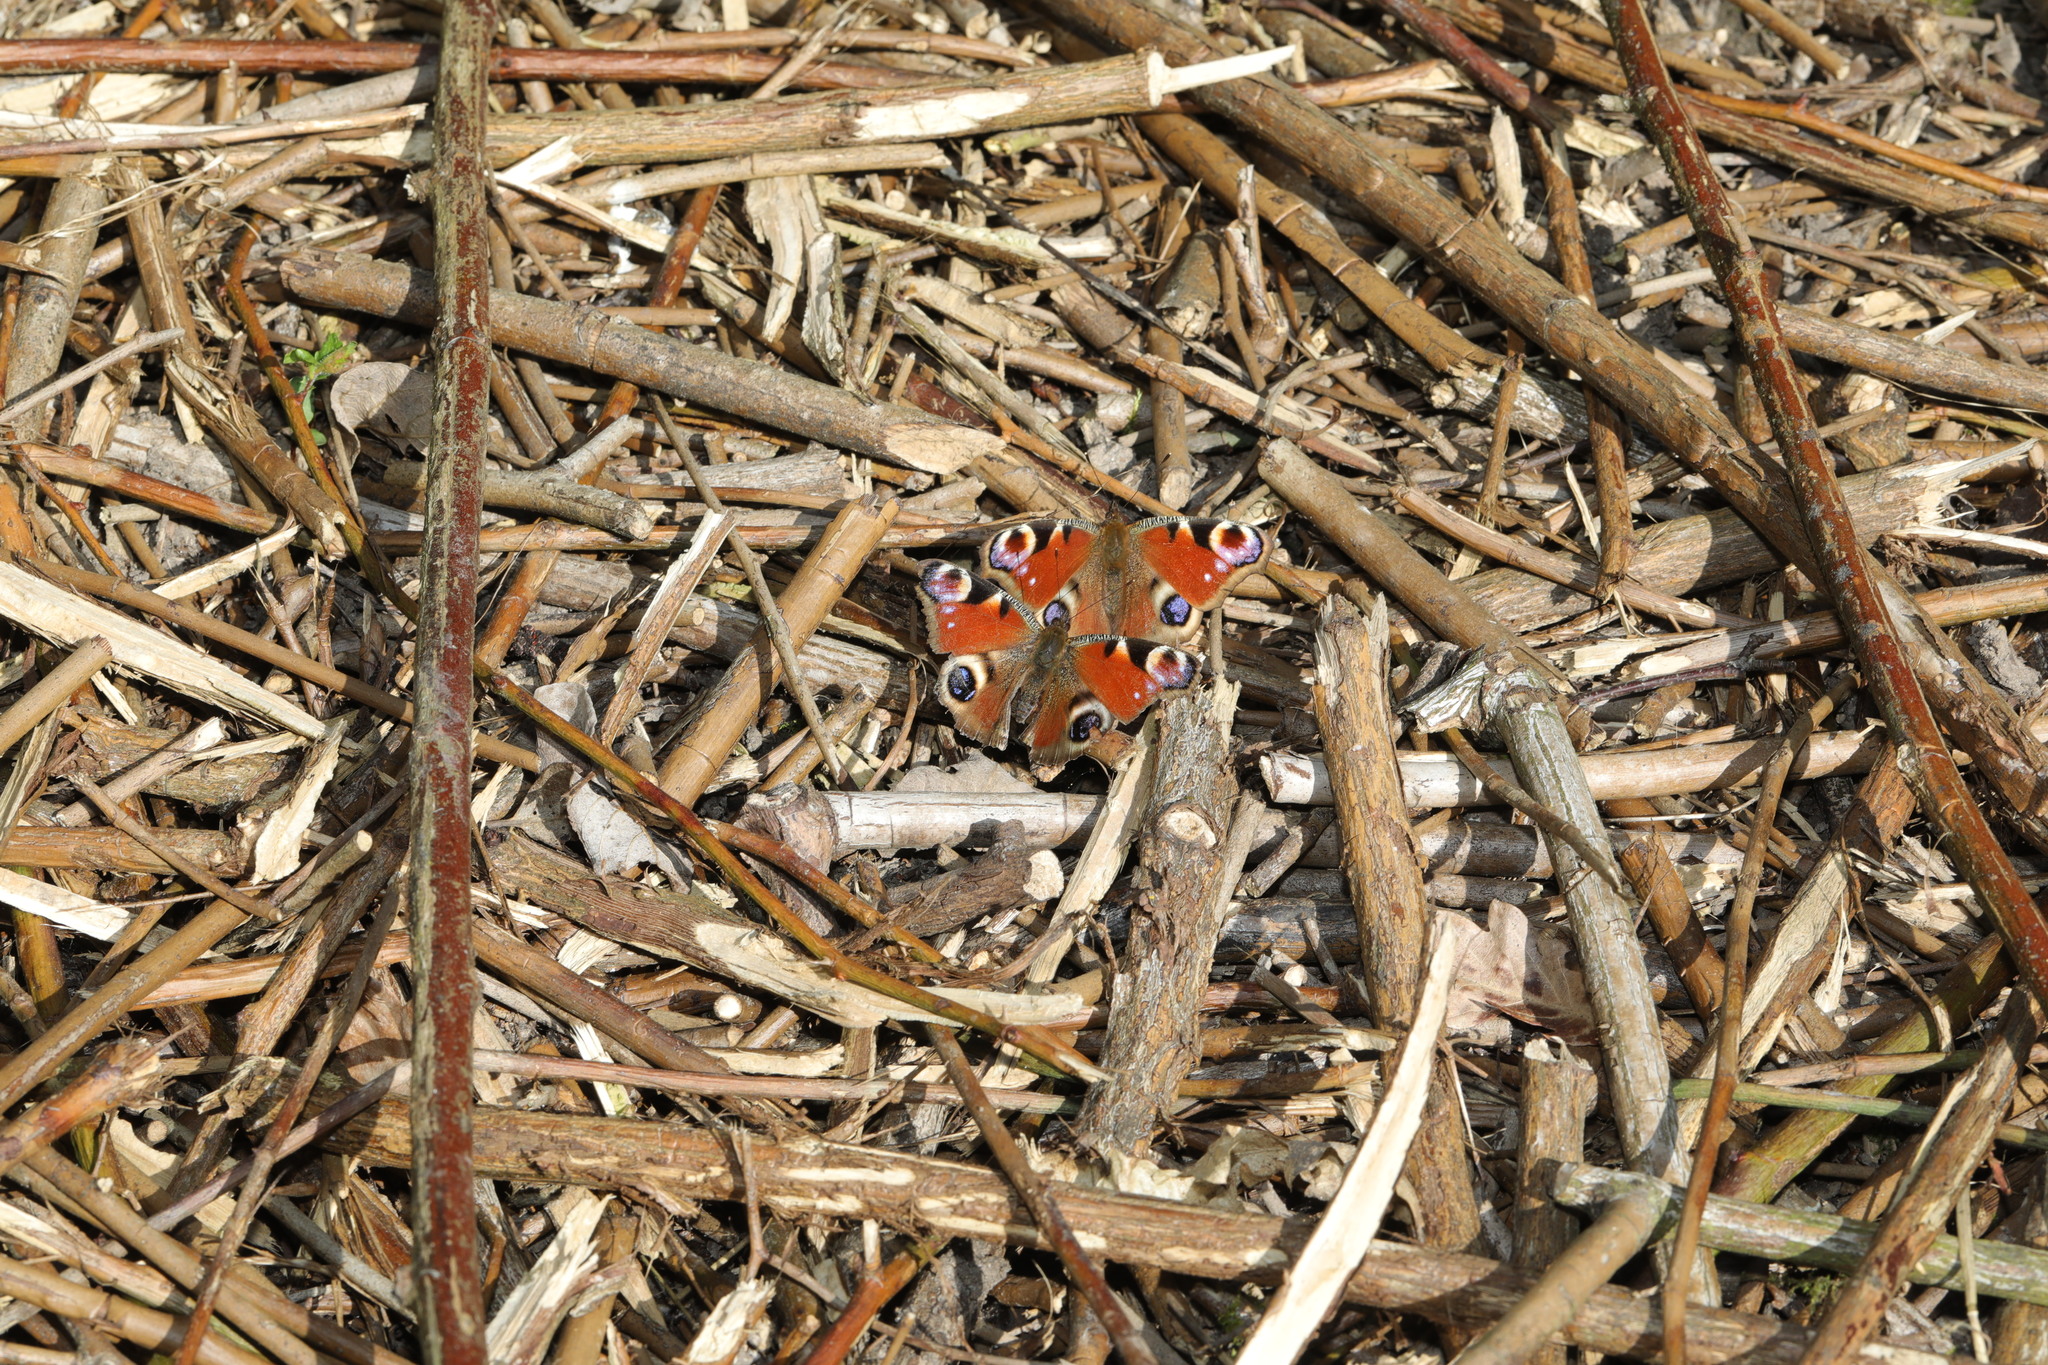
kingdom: Animalia
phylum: Arthropoda
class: Insecta
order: Lepidoptera
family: Nymphalidae
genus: Aglais
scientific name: Aglais io
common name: Peacock
